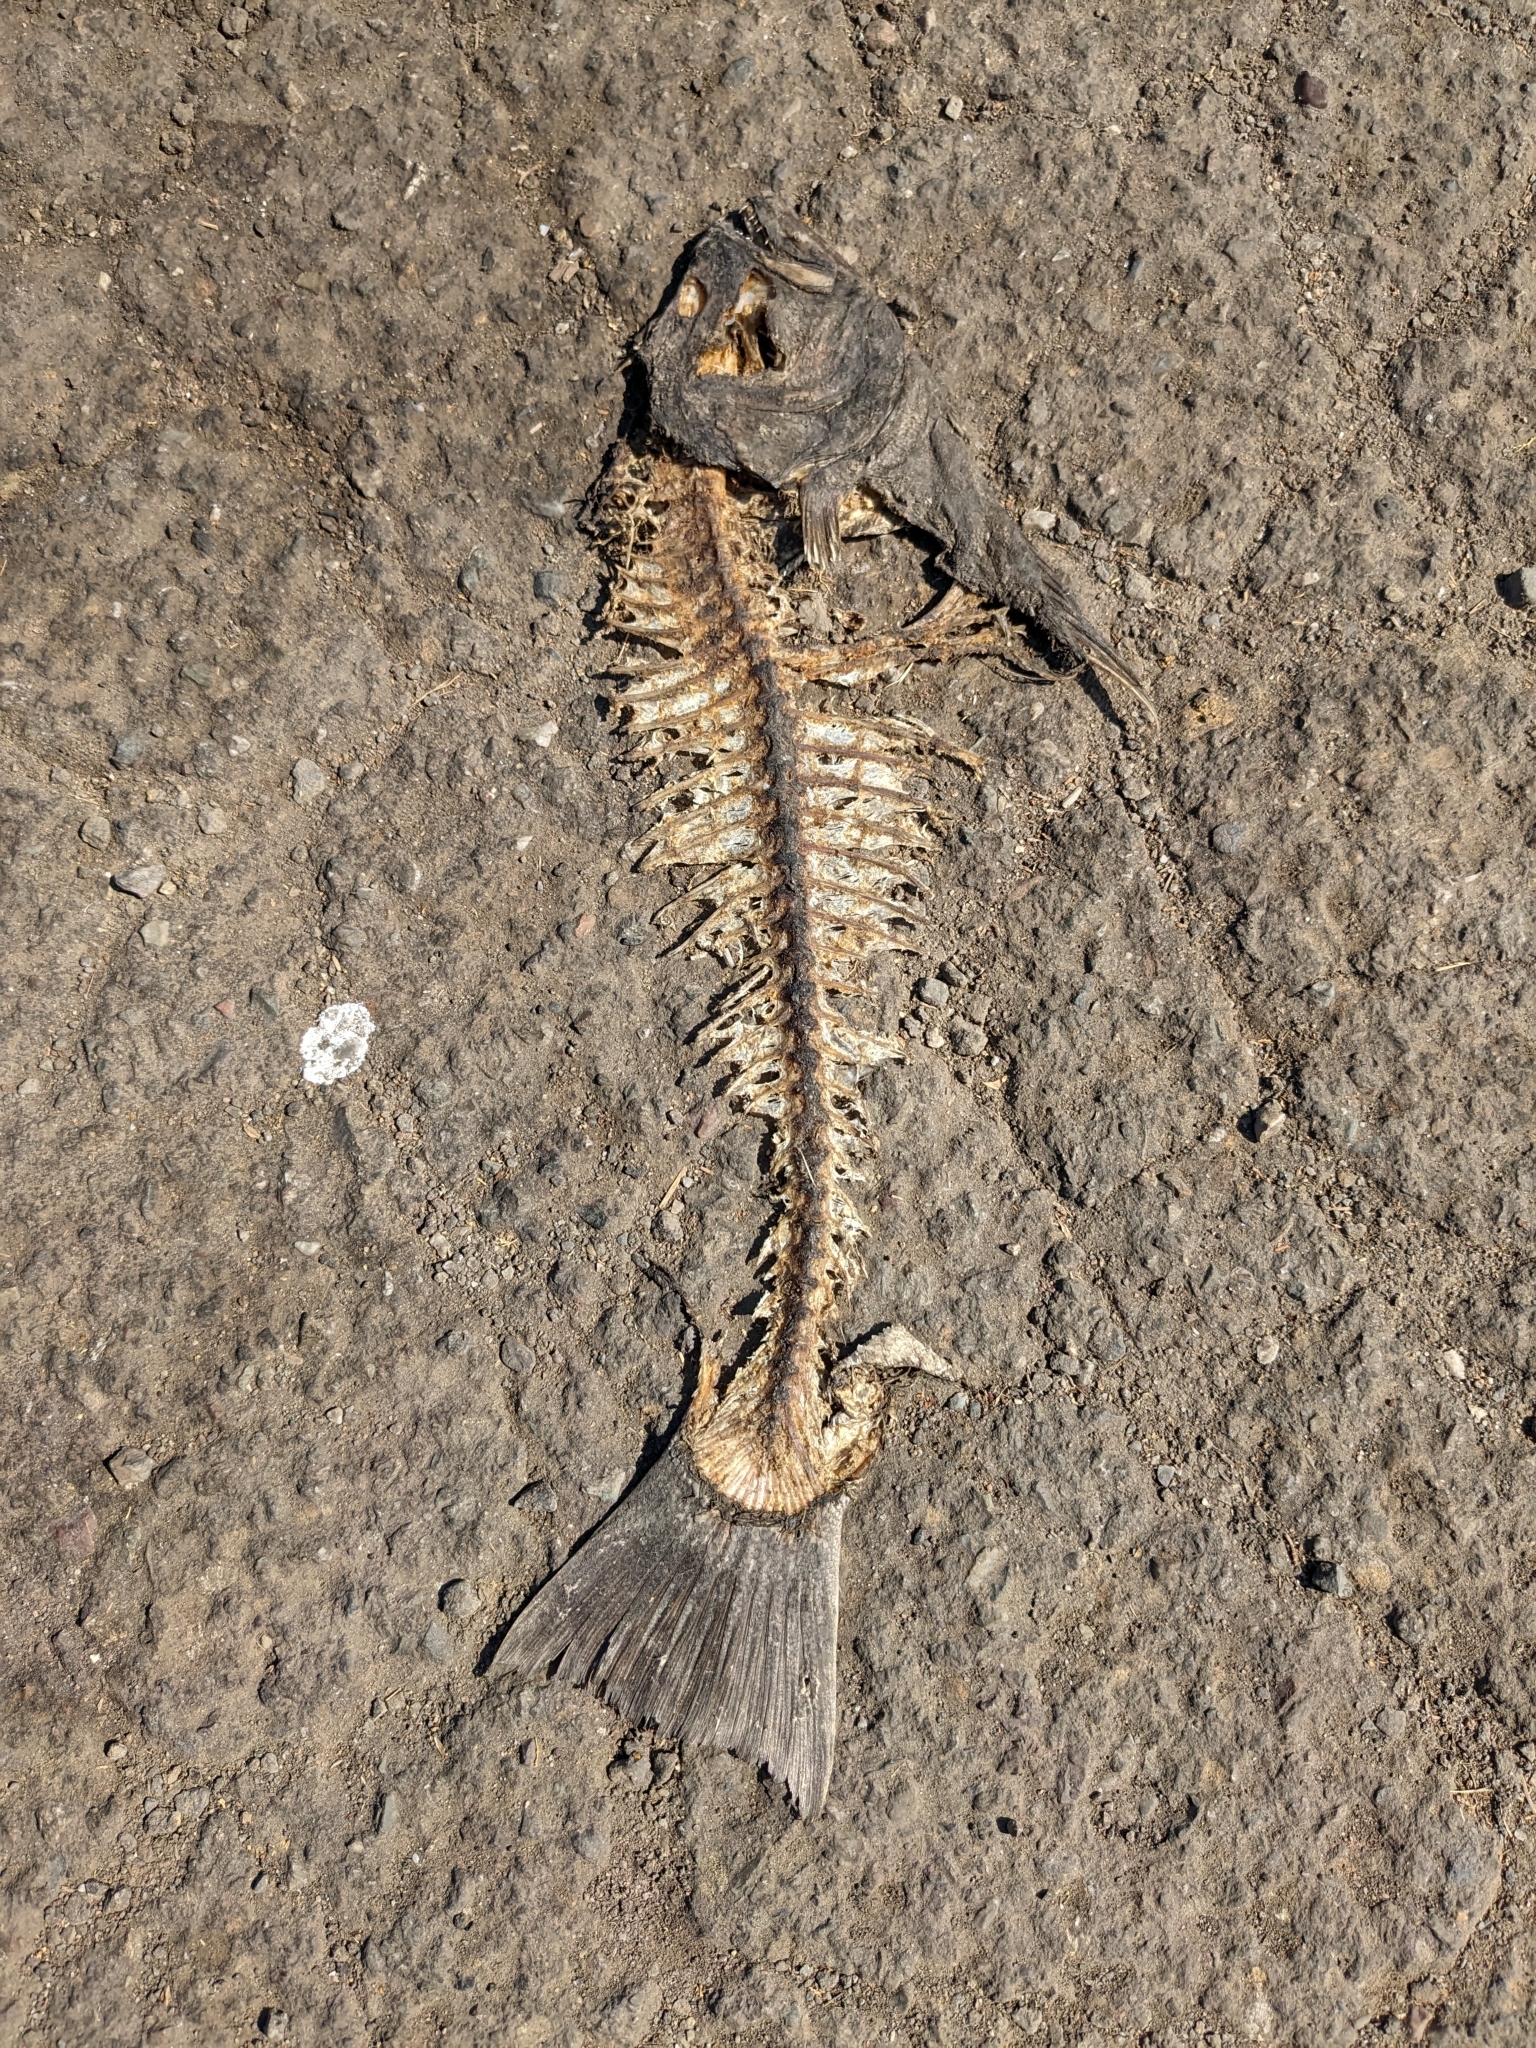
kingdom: Animalia
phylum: Chordata
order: Pleuronectiformes
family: Paralichthyidae
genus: Paralichthys
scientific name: Paralichthys californicus
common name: California halibut
